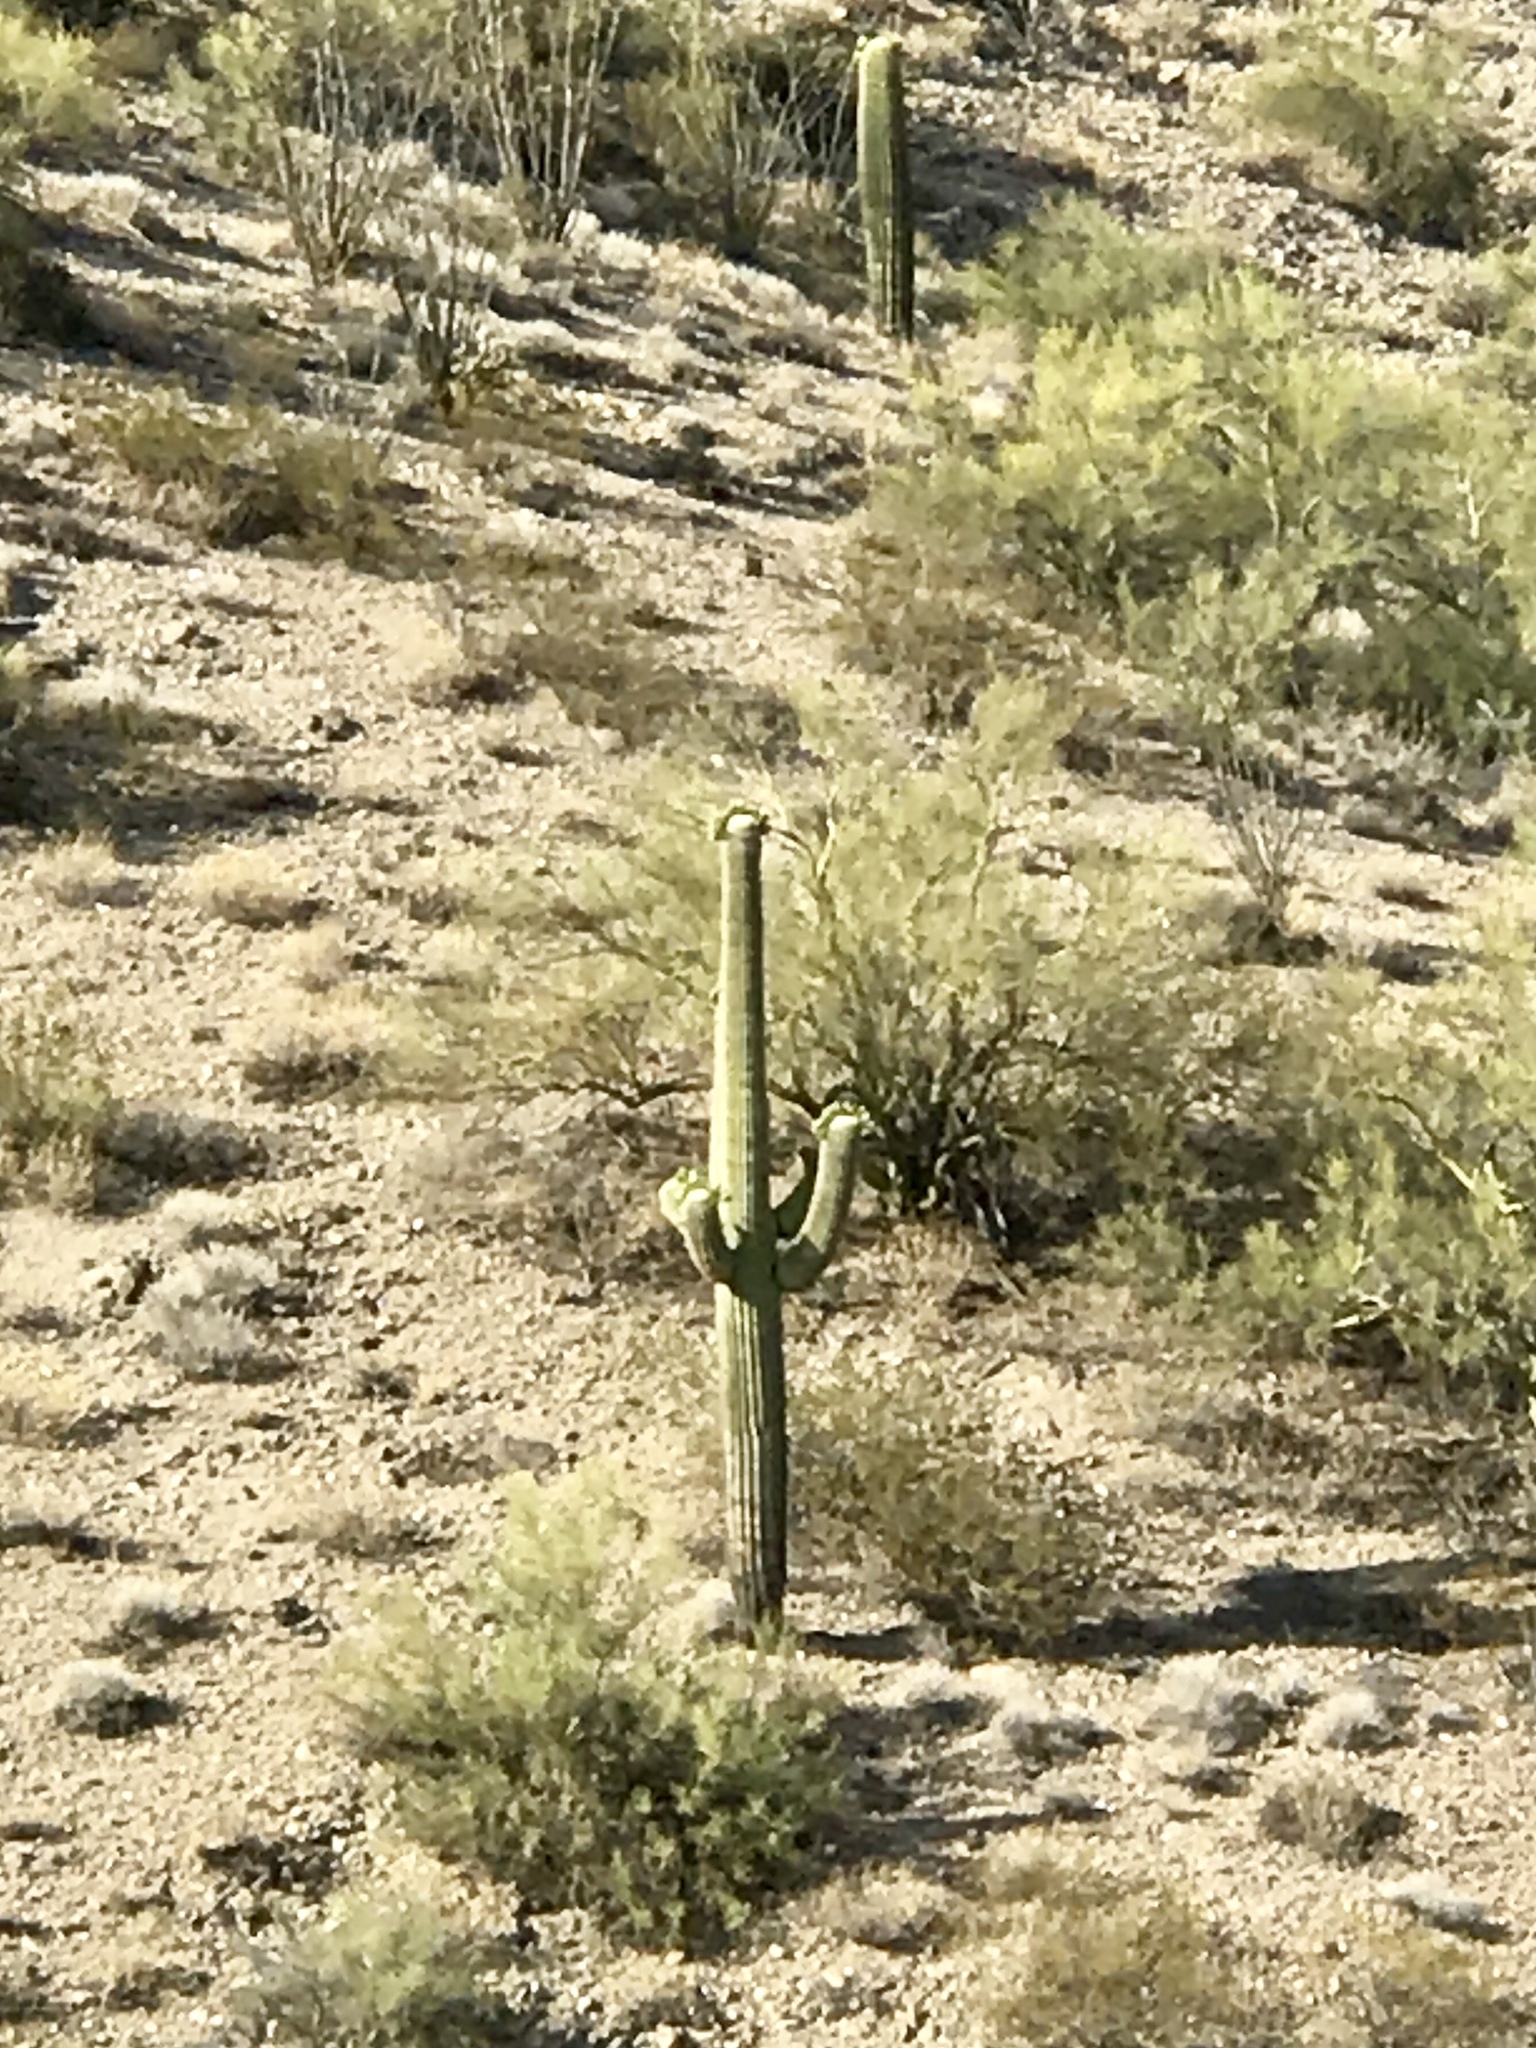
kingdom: Plantae
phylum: Tracheophyta
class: Magnoliopsida
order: Caryophyllales
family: Cactaceae
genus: Carnegiea
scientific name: Carnegiea gigantea
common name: Saguaro
